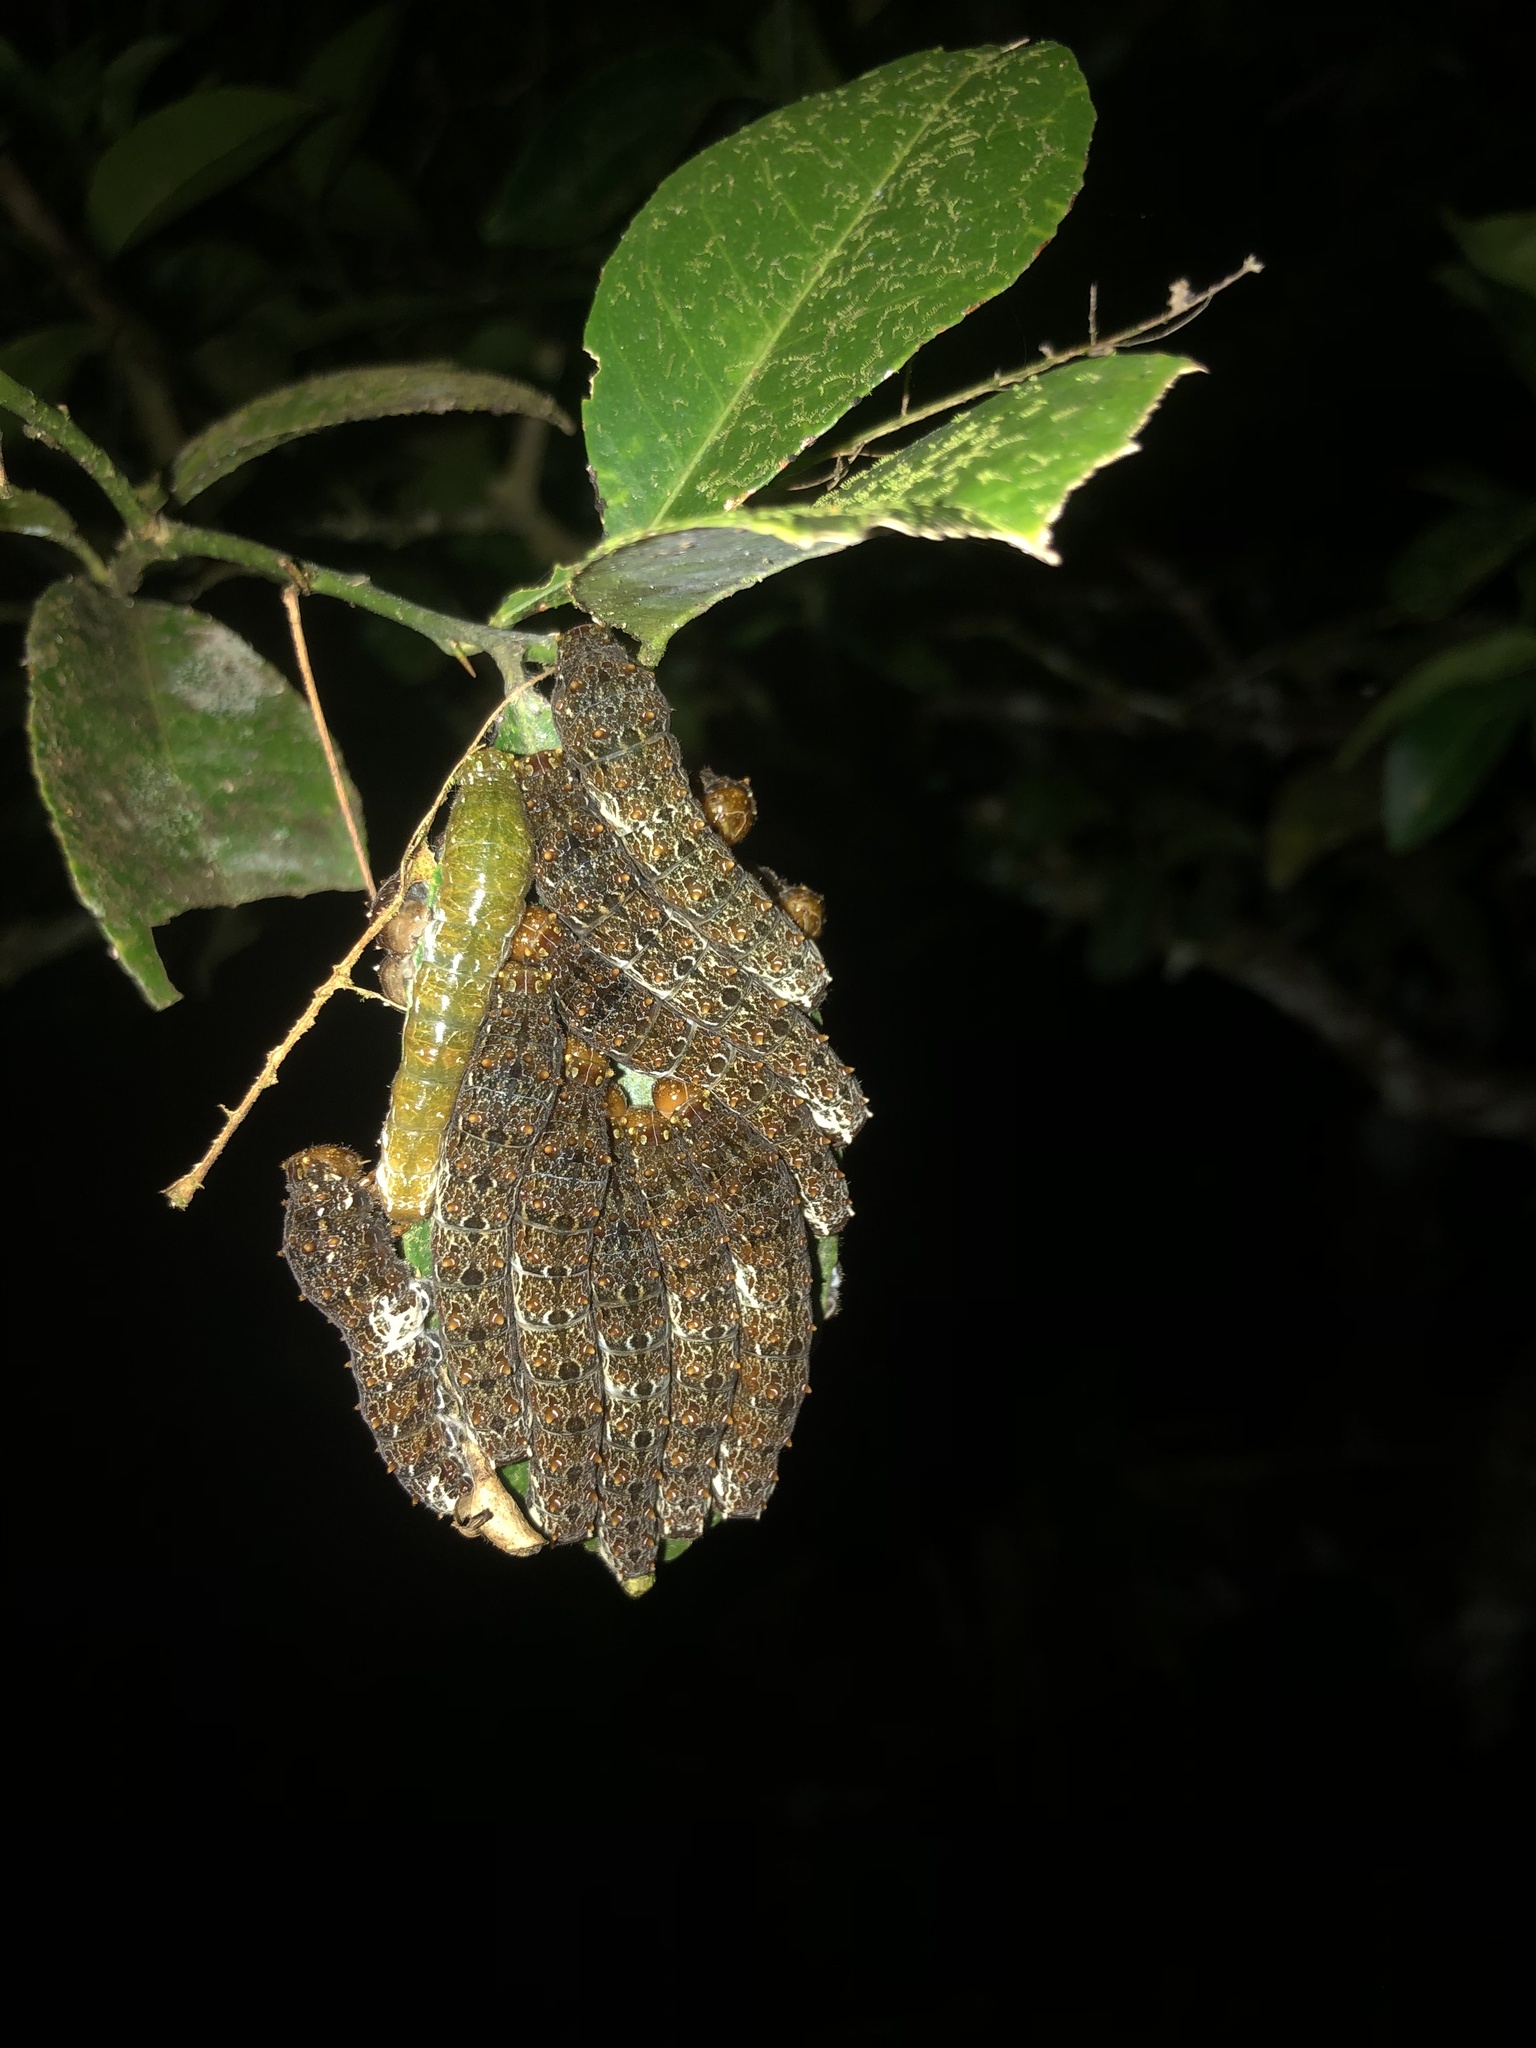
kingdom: Animalia
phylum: Arthropoda
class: Insecta
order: Lepidoptera
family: Papilionidae
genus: Papilio
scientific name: Papilio anchisiades
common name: Idaes swallowtail
